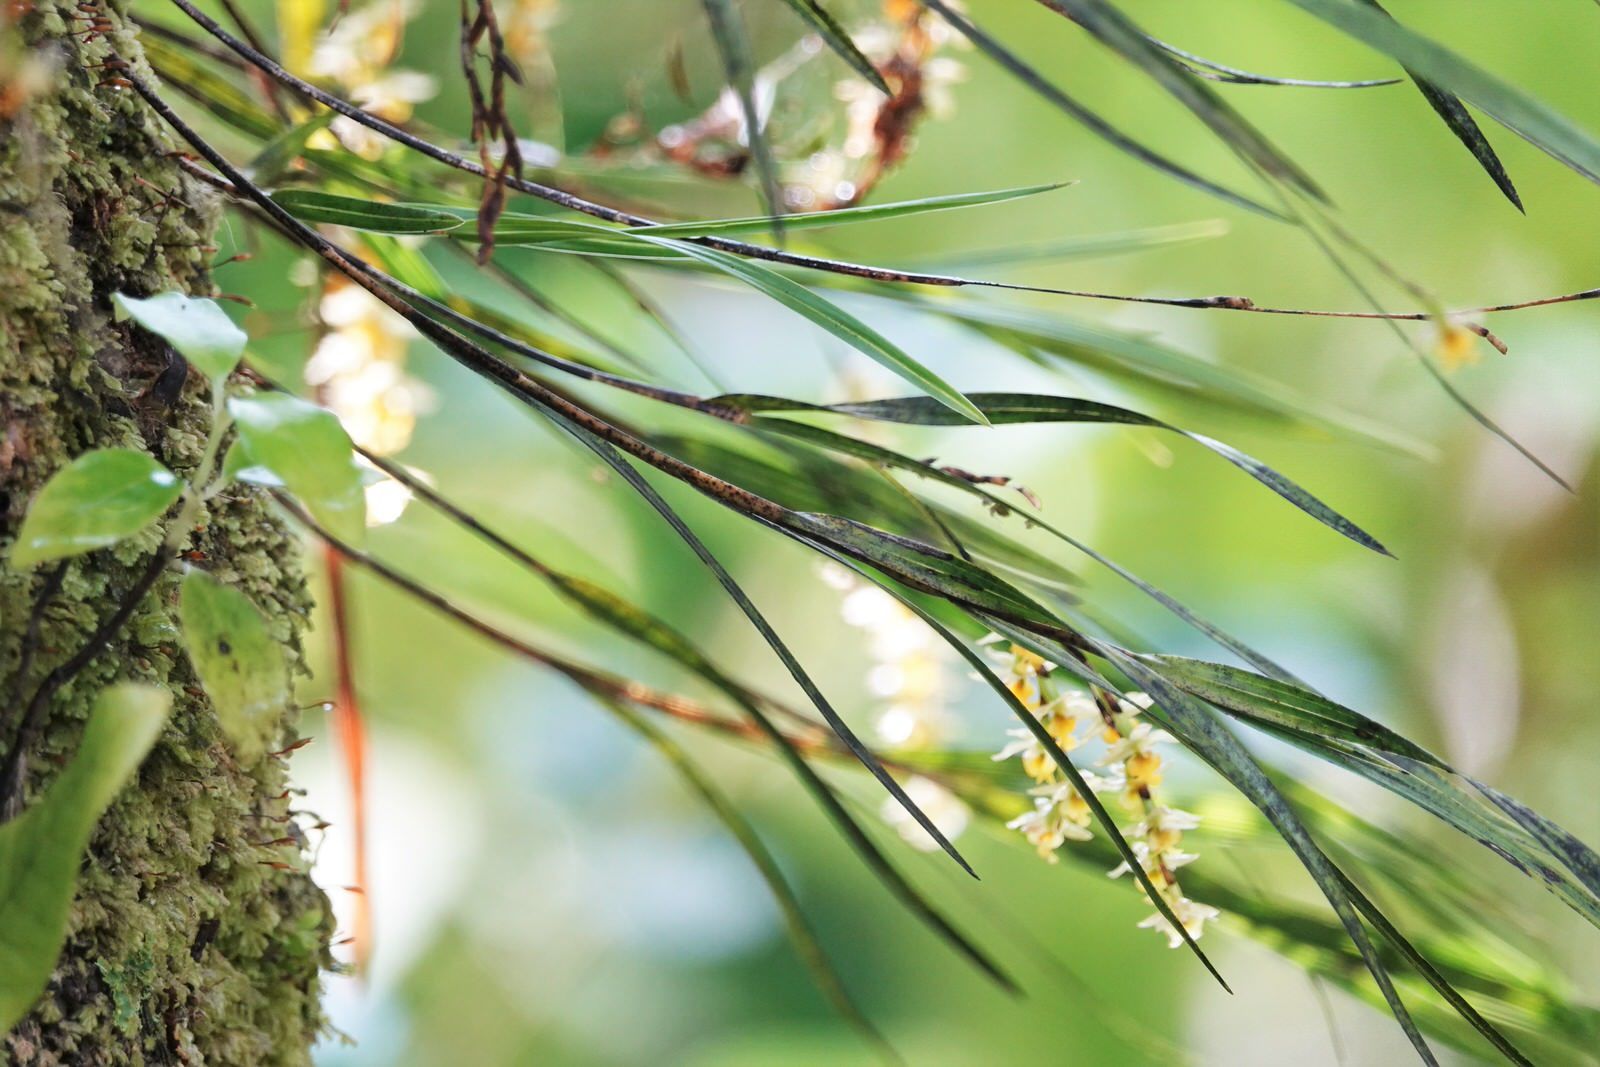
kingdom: Plantae
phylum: Tracheophyta
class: Liliopsida
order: Asparagales
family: Orchidaceae
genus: Earina
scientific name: Earina aestivalis
